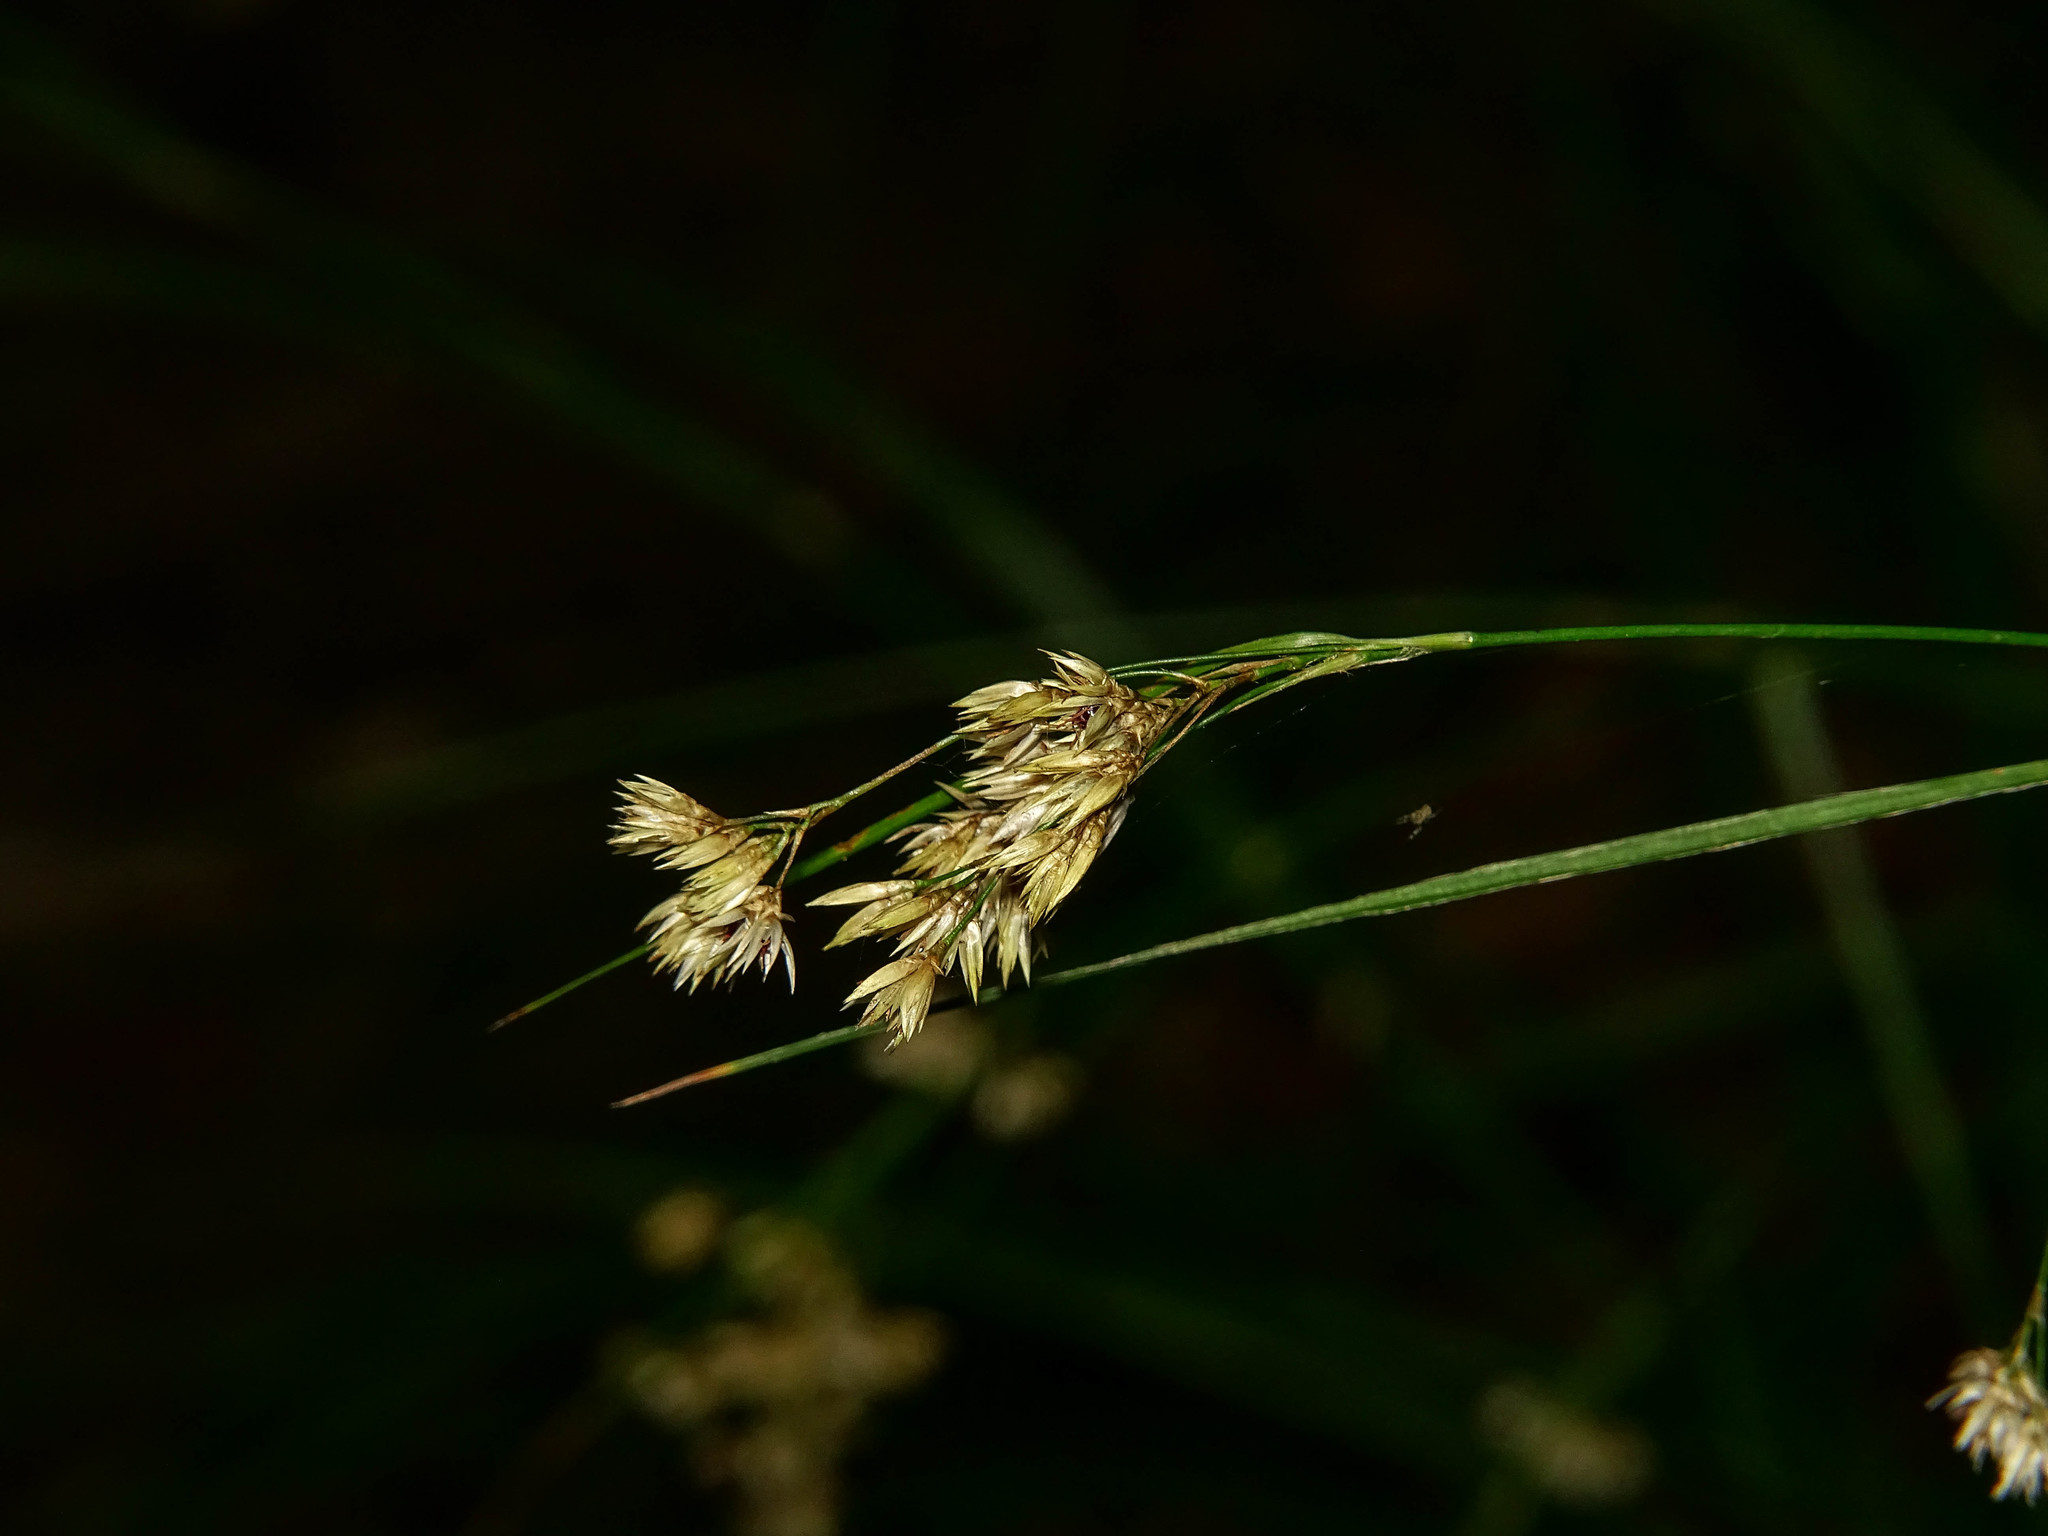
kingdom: Plantae
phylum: Tracheophyta
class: Liliopsida
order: Poales
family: Juncaceae
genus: Luzula
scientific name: Luzula luzuloides
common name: White wood-rush
